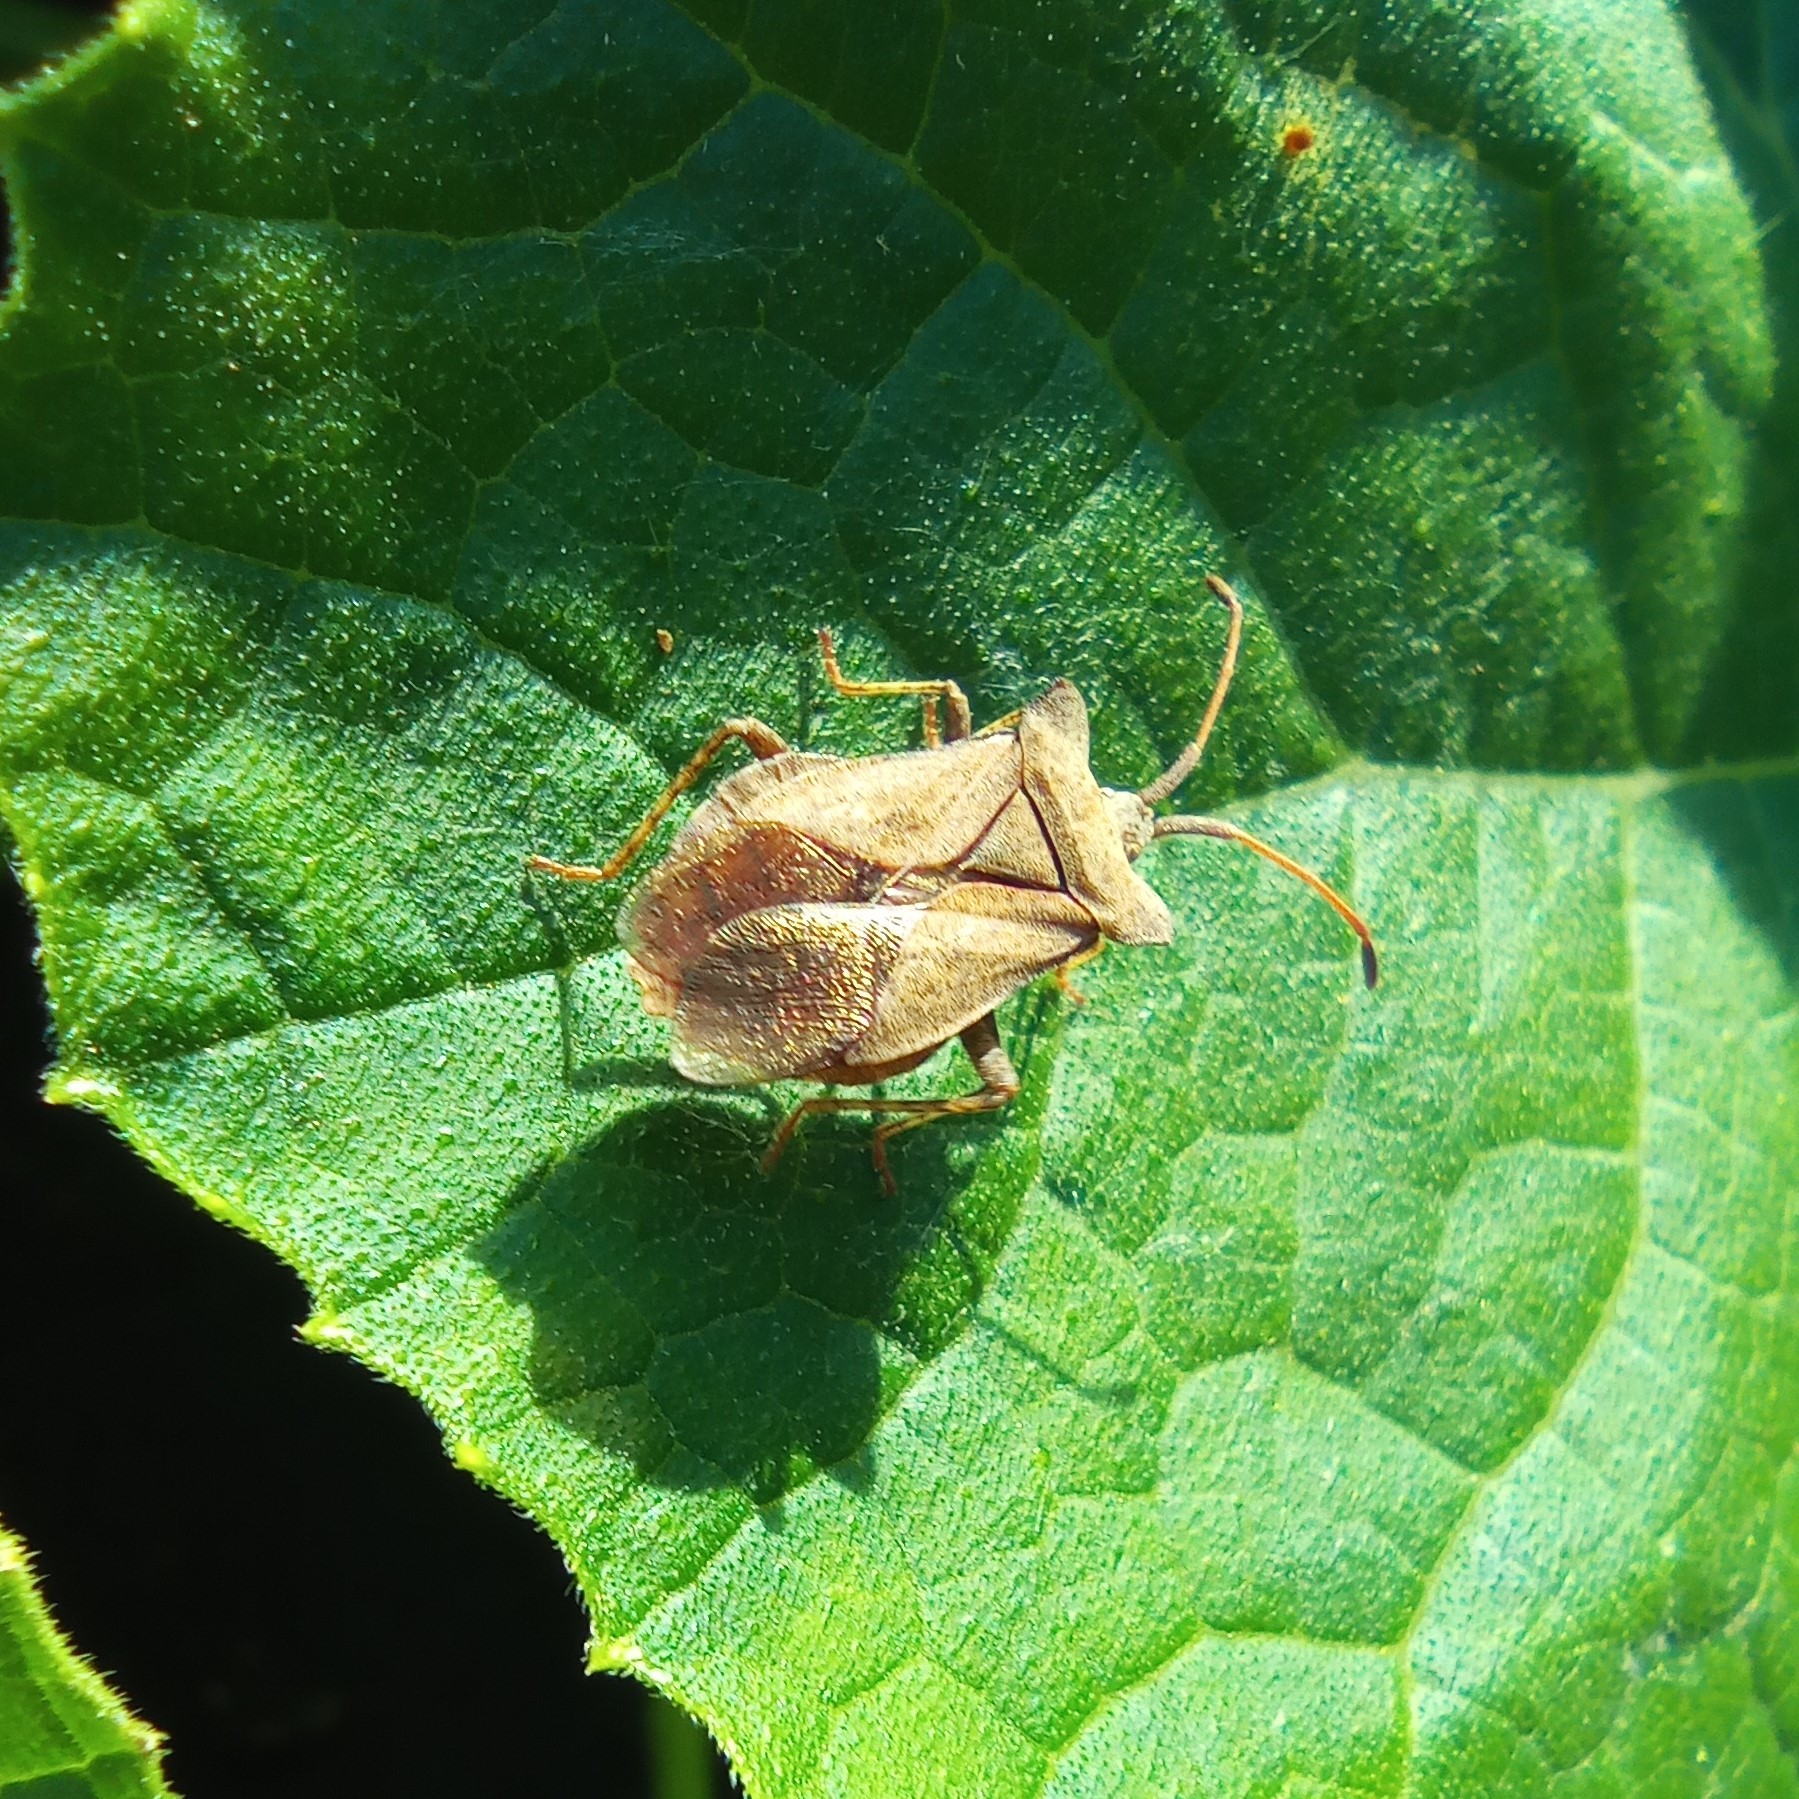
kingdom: Animalia
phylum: Arthropoda
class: Insecta
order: Hemiptera
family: Coreidae
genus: Coreus
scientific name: Coreus marginatus
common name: Dock bug
